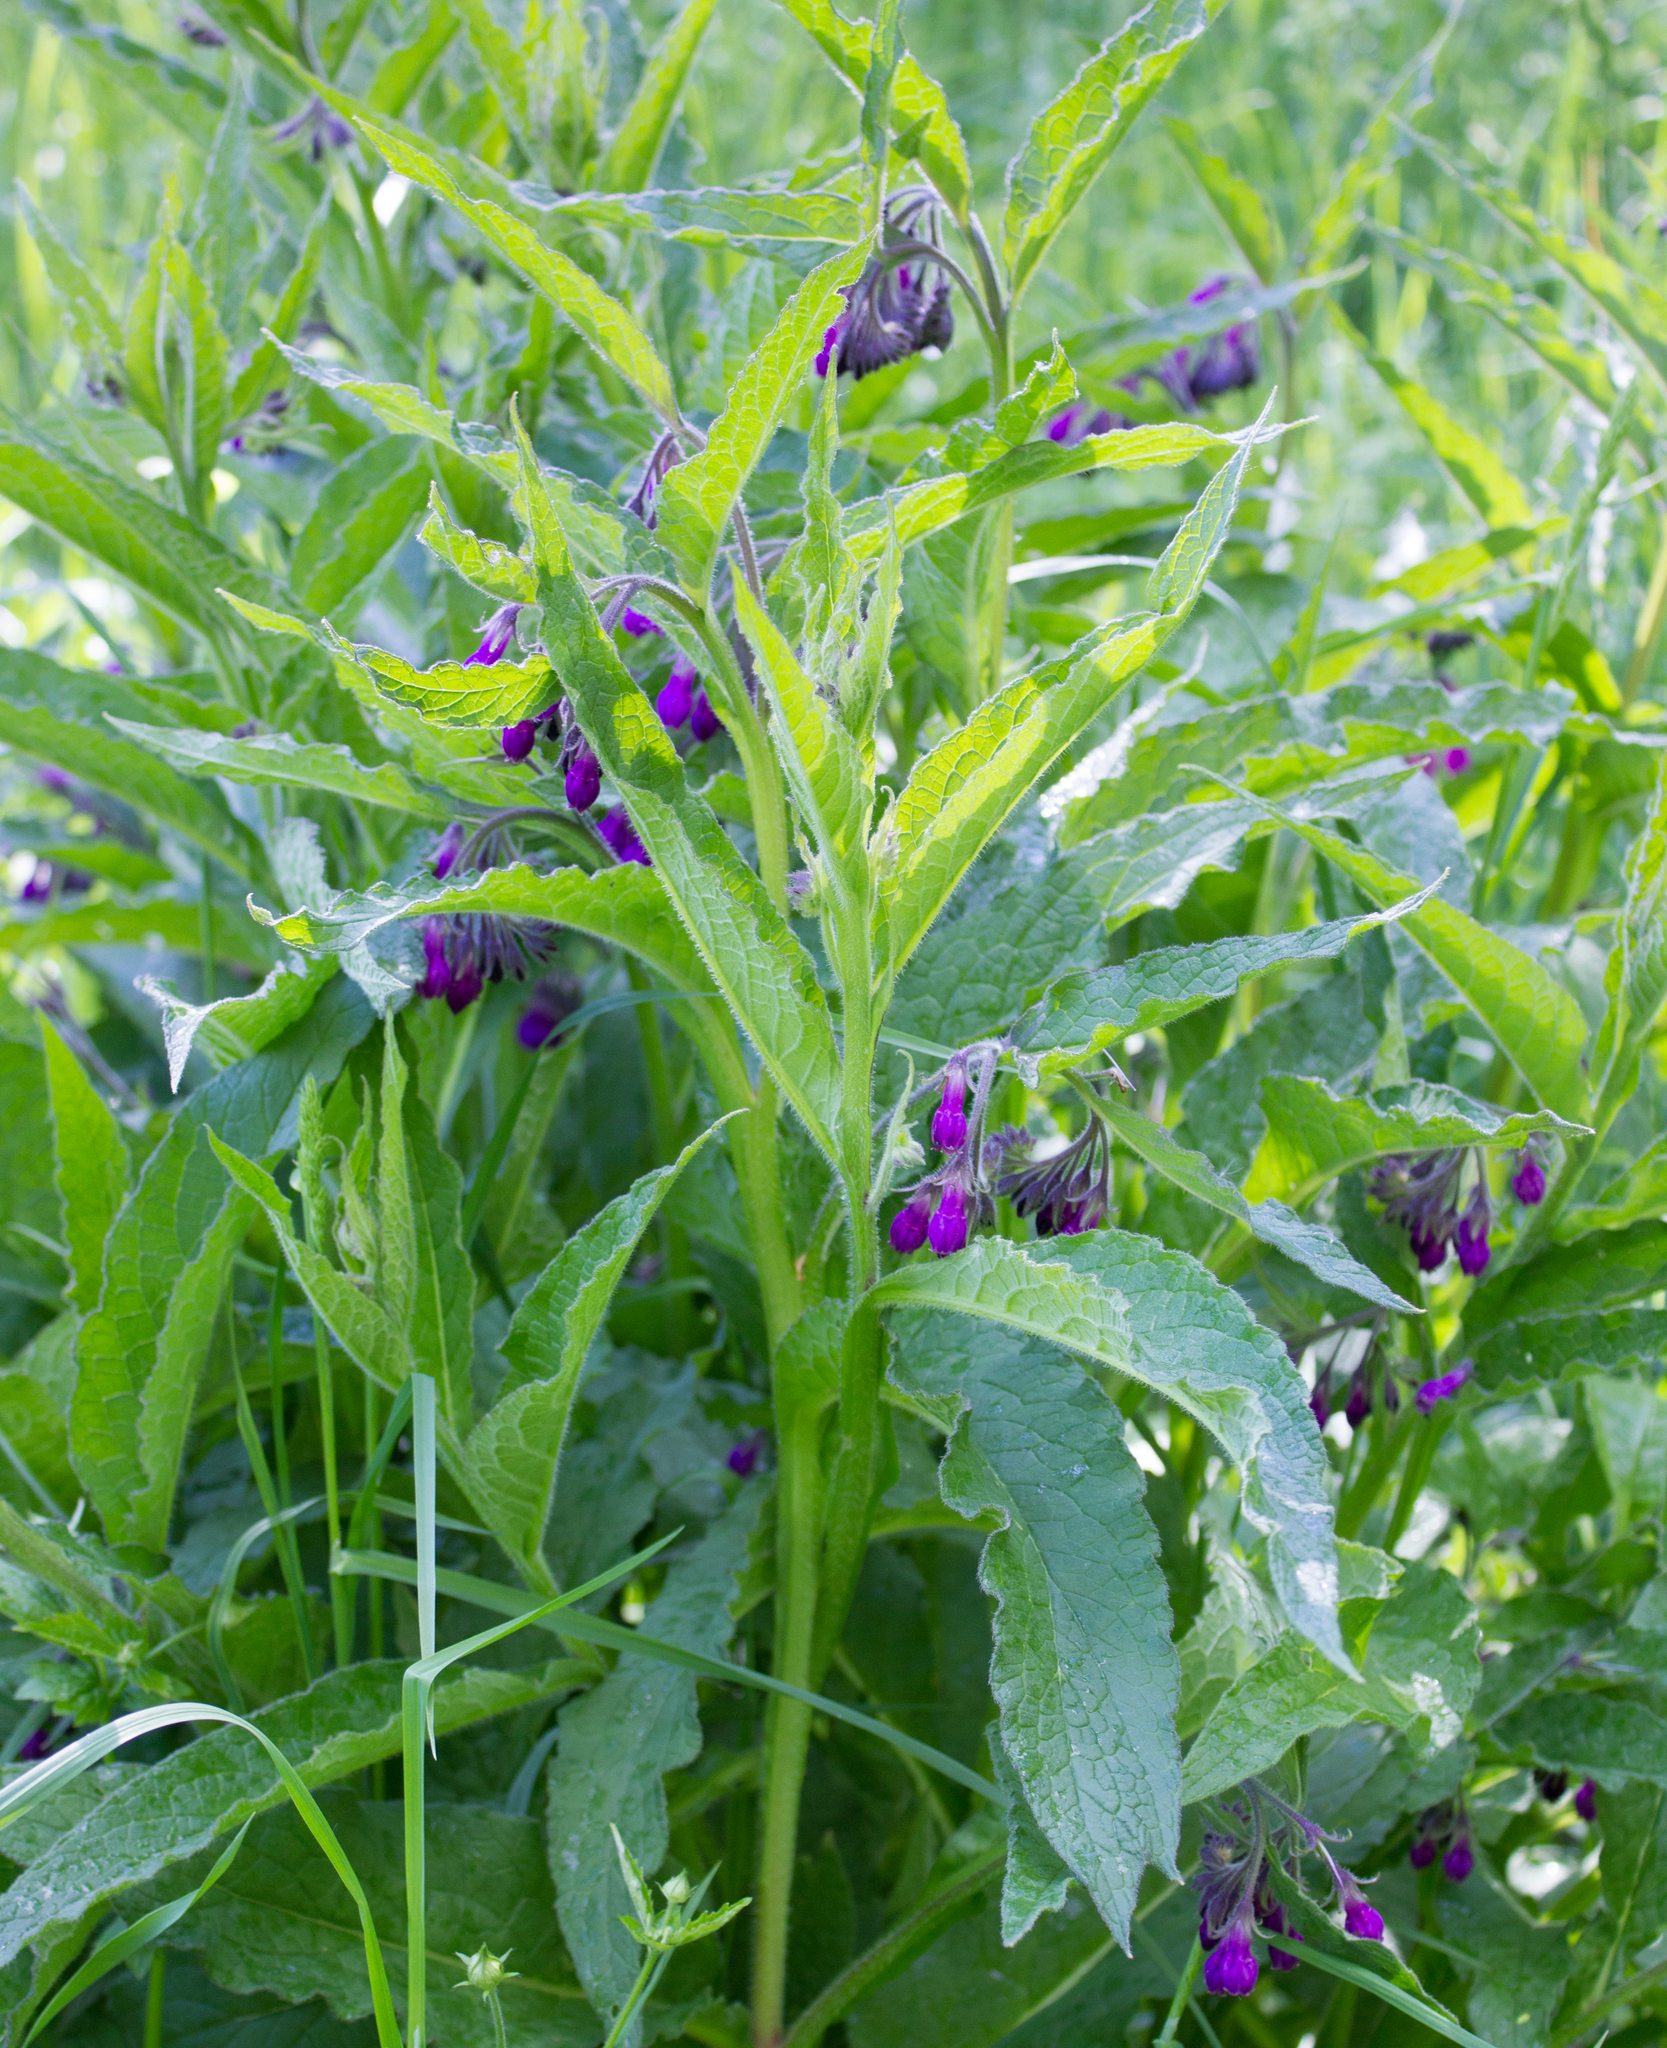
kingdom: Plantae
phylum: Tracheophyta
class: Magnoliopsida
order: Boraginales
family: Boraginaceae
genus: Symphytum
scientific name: Symphytum officinale
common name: Common comfrey
